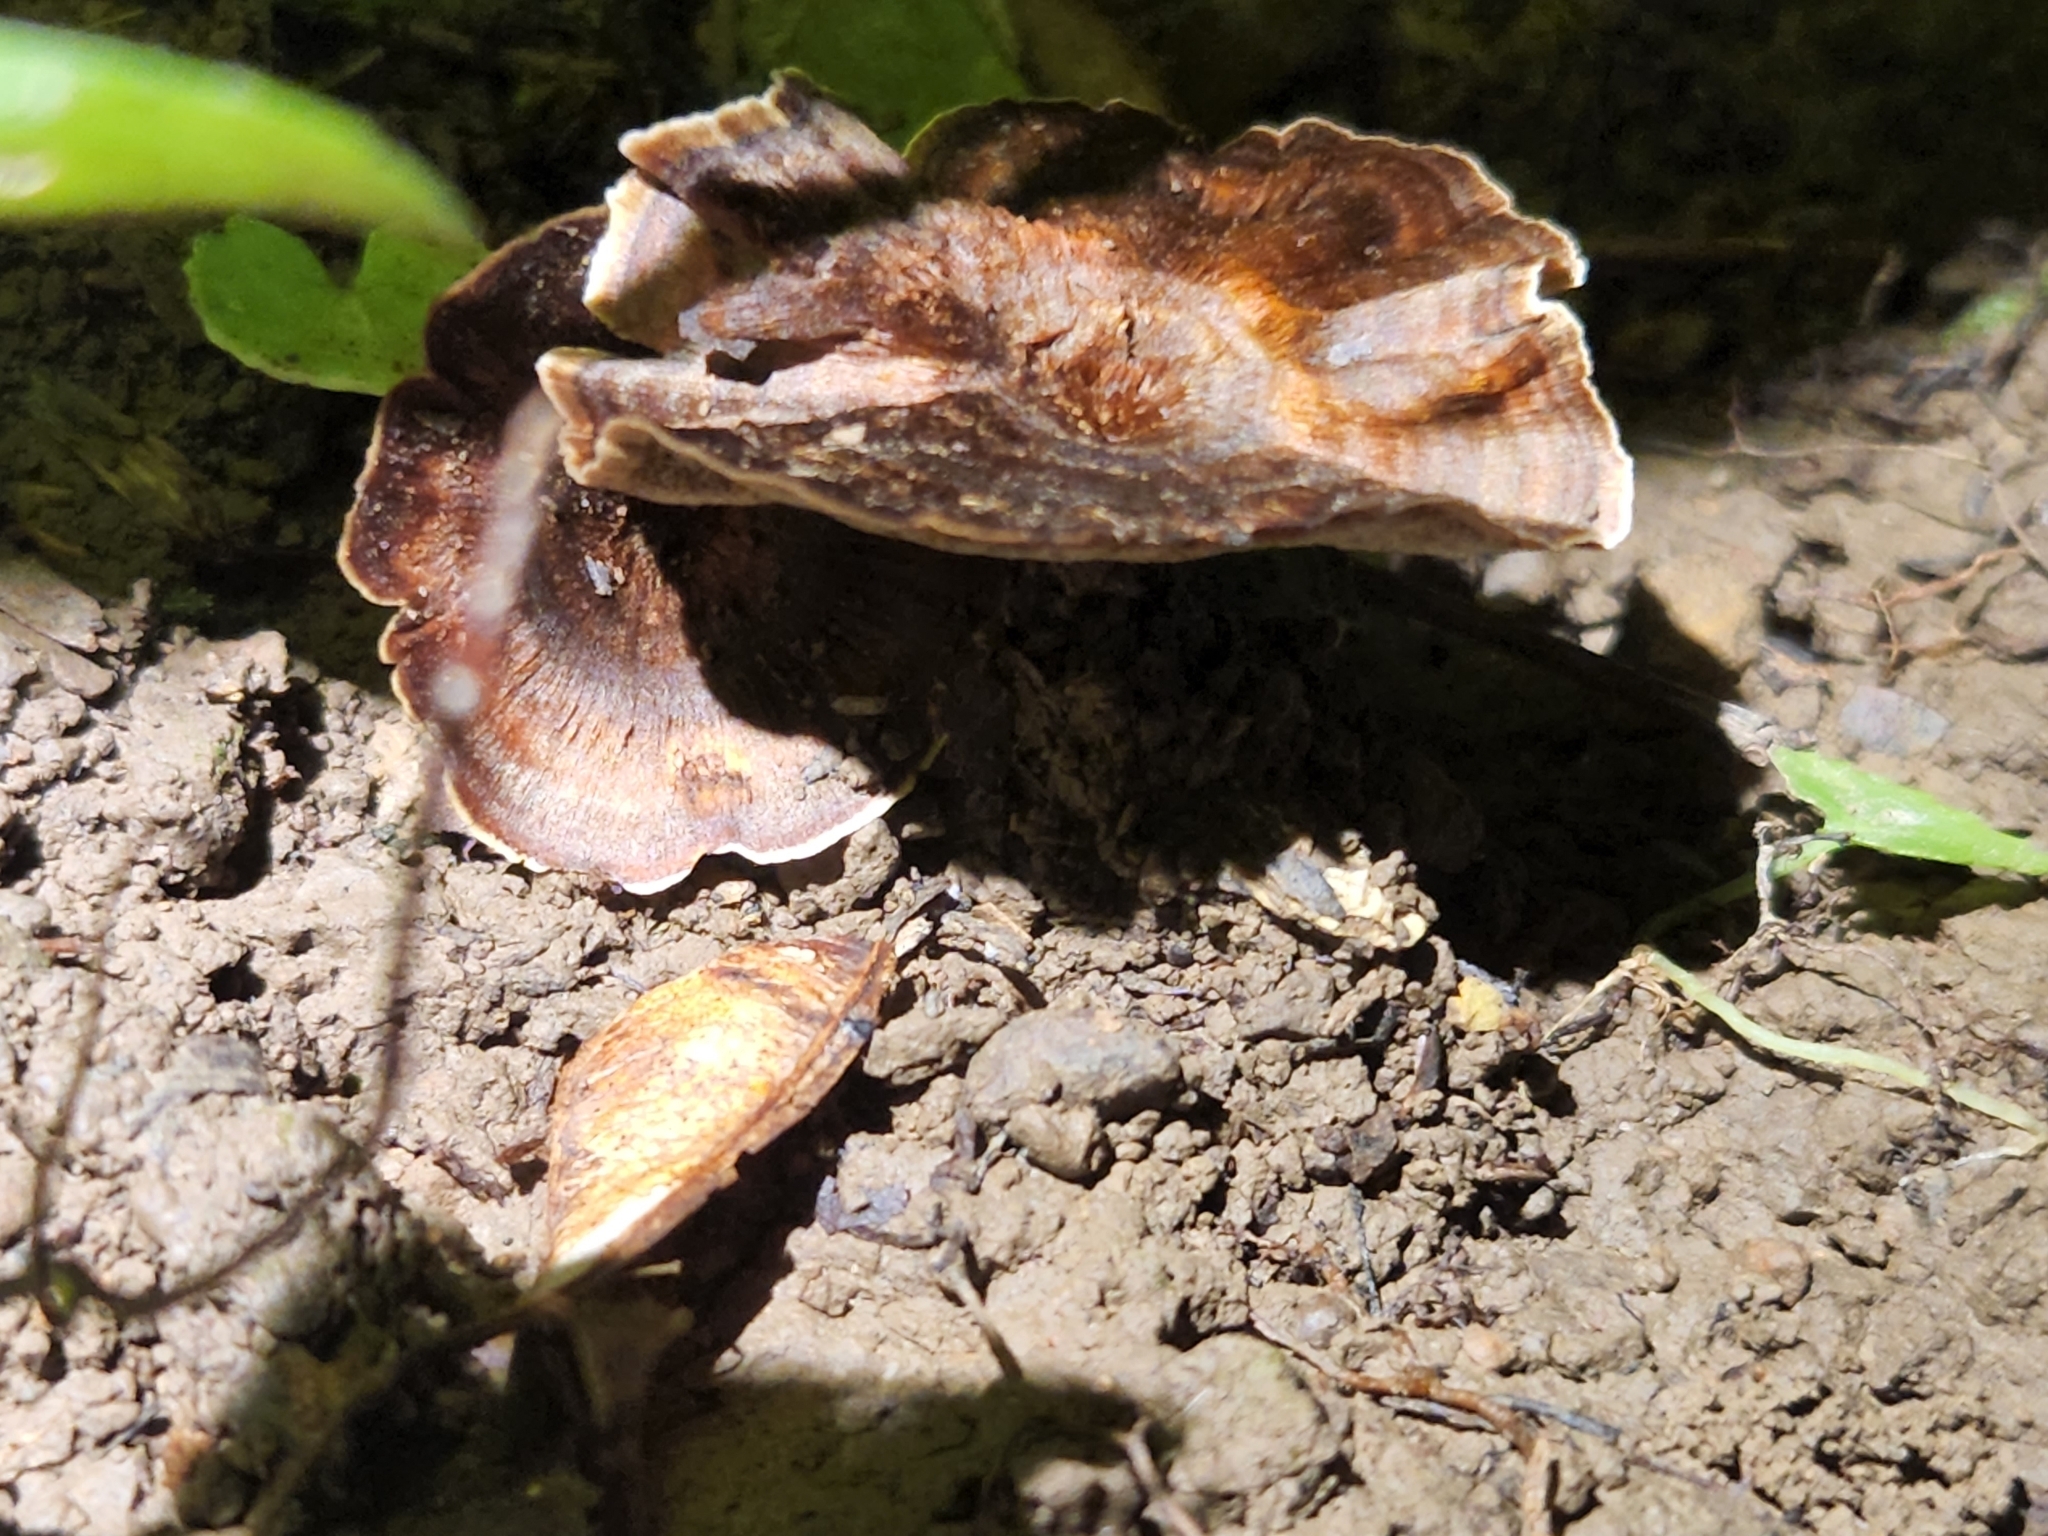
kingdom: Fungi
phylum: Basidiomycota
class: Agaricomycetes
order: Hymenochaetales
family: Hymenochaetaceae
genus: Coltricia
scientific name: Coltricia cinnamomea
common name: Shiny cinnamon polypore
